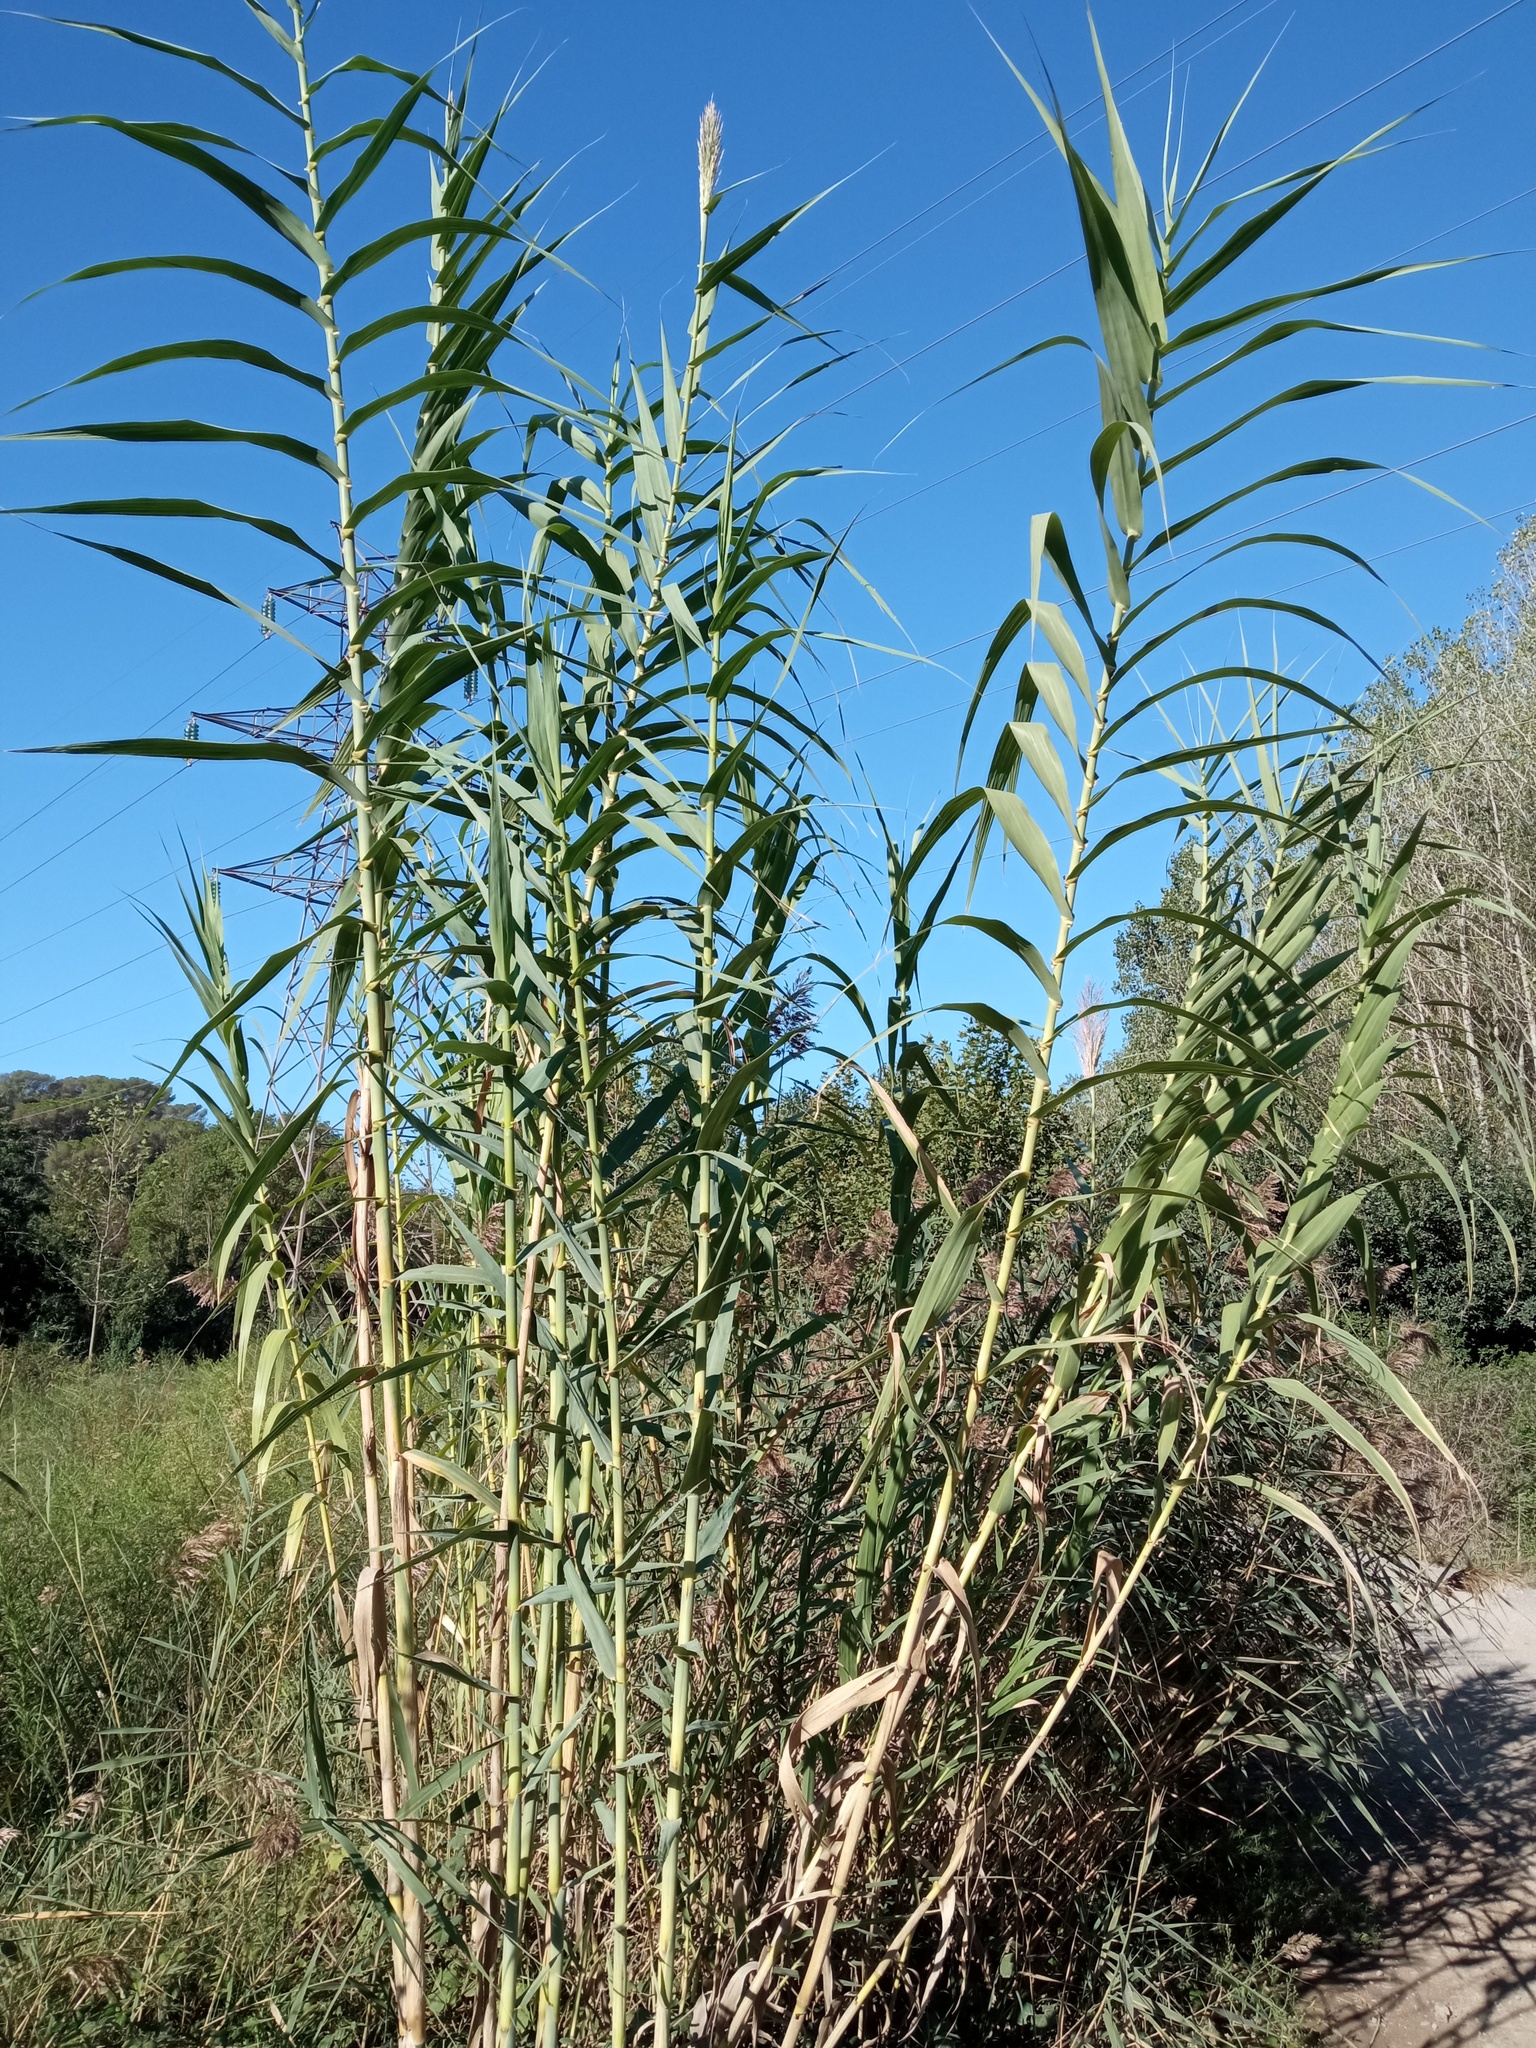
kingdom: Plantae
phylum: Tracheophyta
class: Liliopsida
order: Poales
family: Poaceae
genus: Arundo
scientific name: Arundo donax
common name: Giant reed
